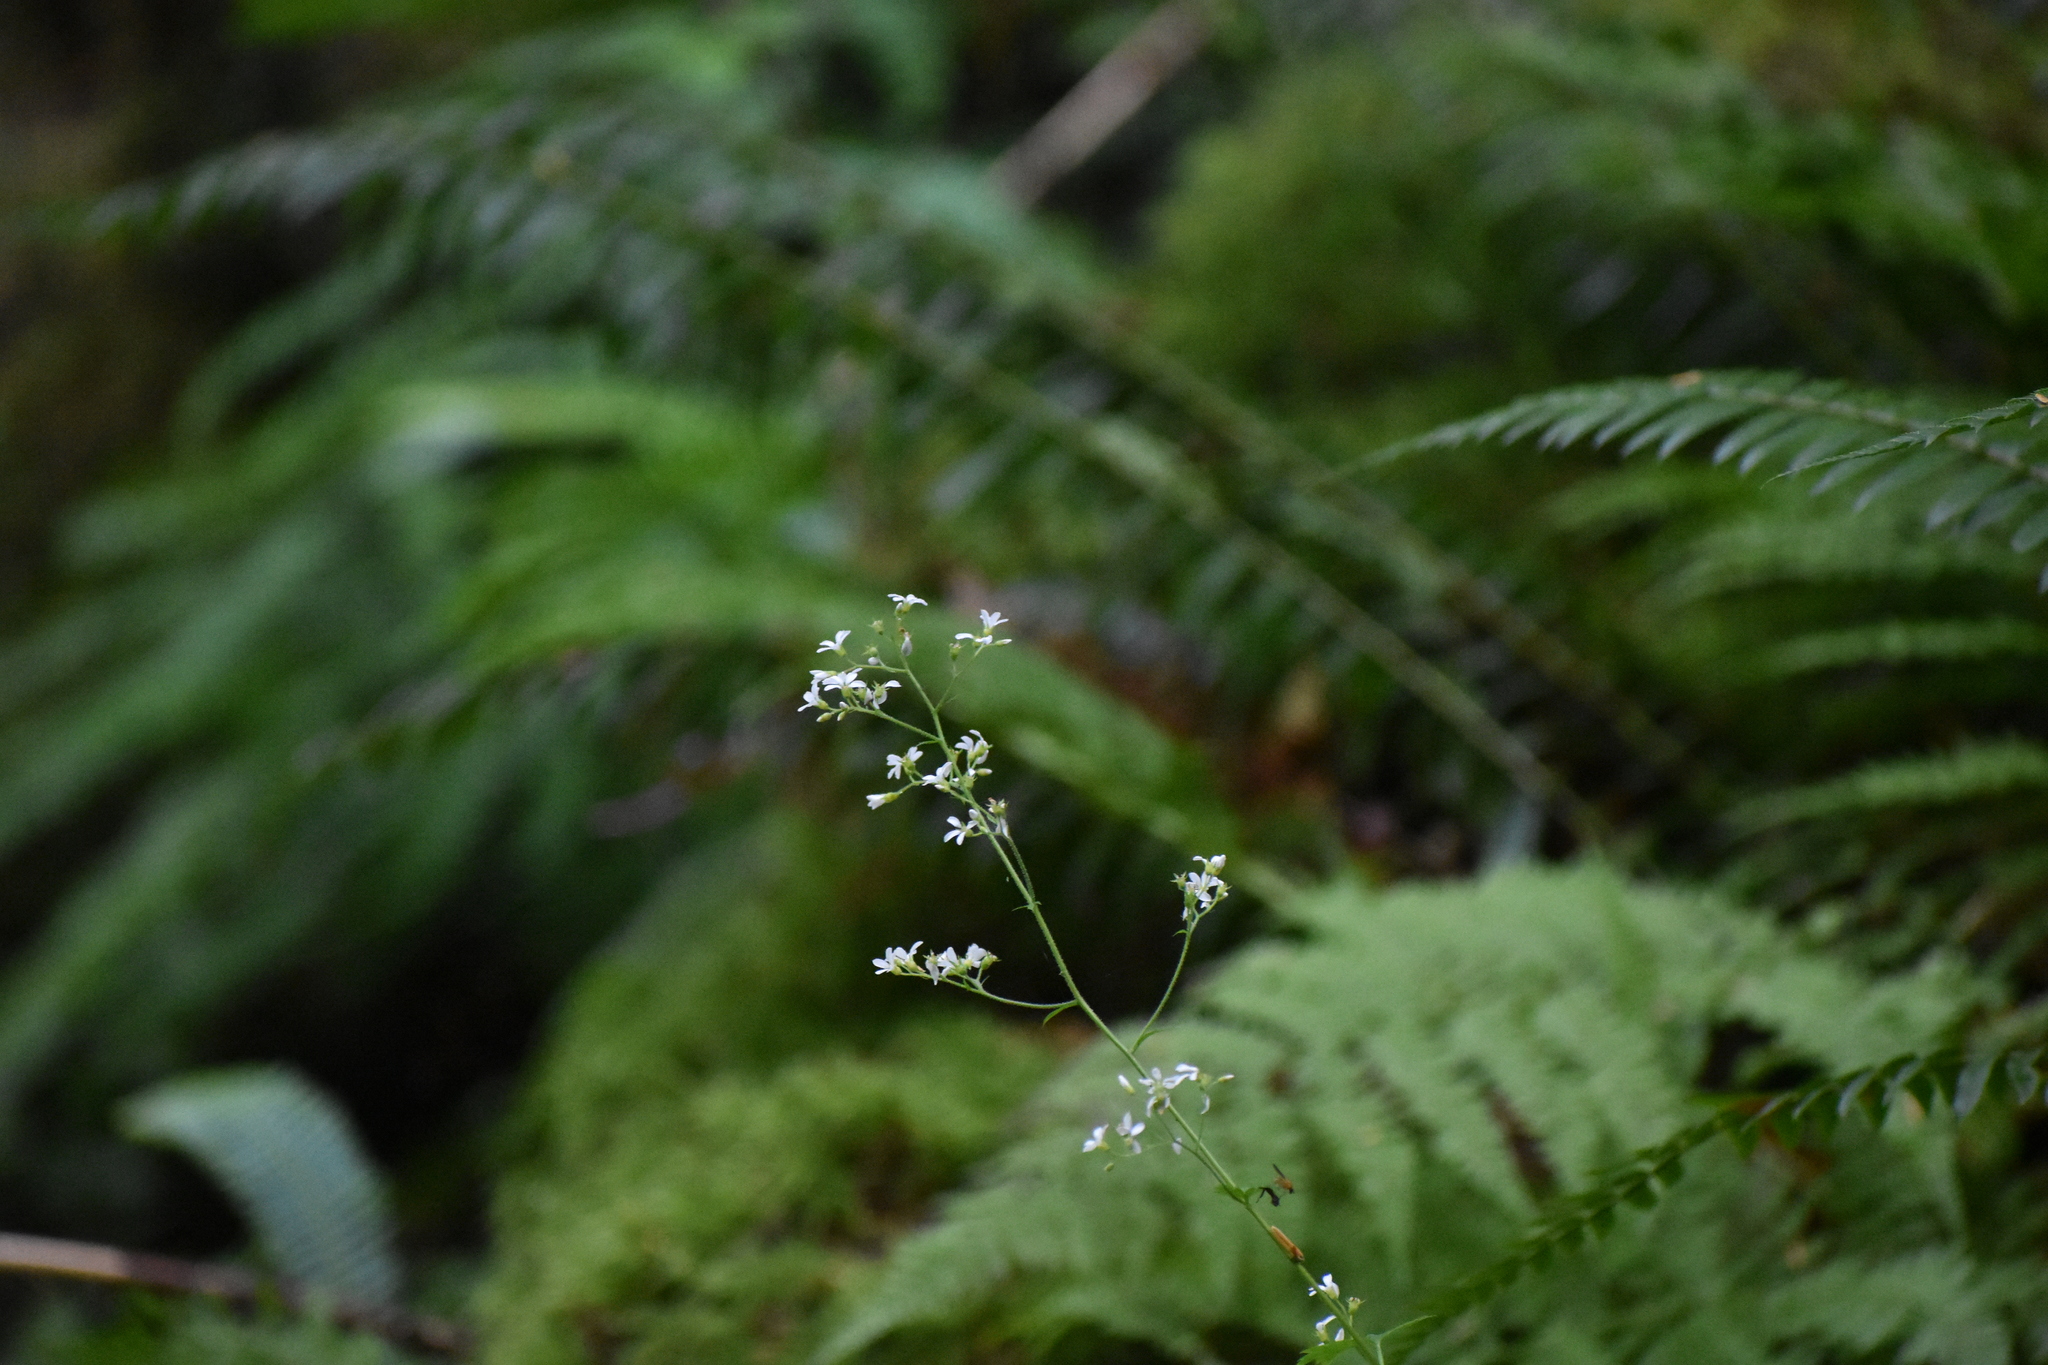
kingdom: Plantae
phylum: Tracheophyta
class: Magnoliopsida
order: Saxifragales
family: Saxifragaceae
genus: Boykinia
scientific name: Boykinia occidentalis
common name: Coast boykinia
